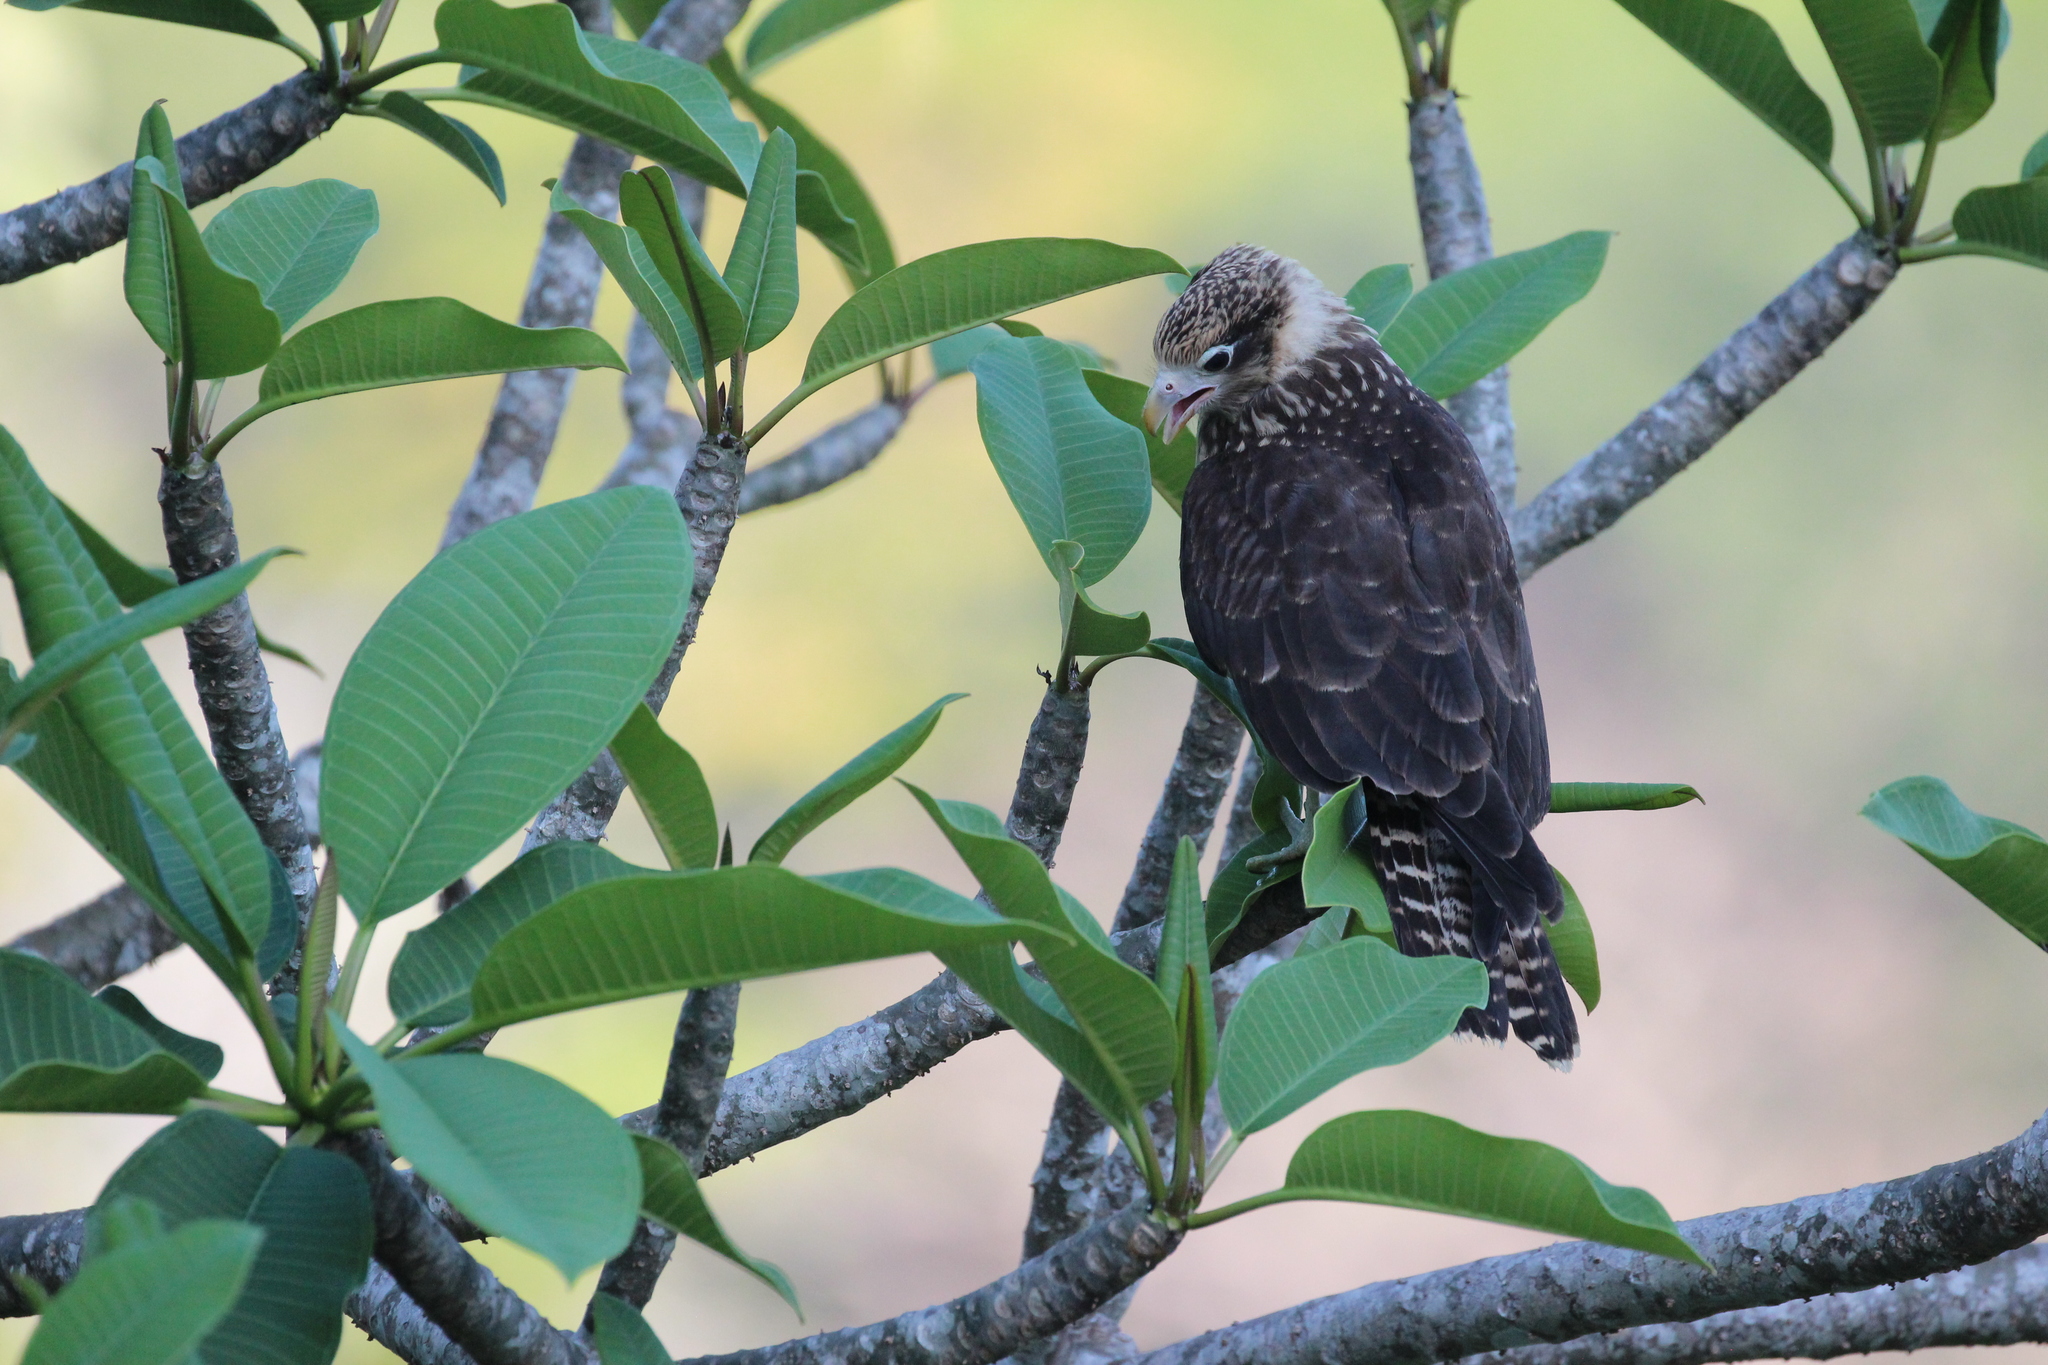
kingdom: Animalia
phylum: Chordata
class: Aves
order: Falconiformes
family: Falconidae
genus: Daptrius
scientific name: Daptrius
